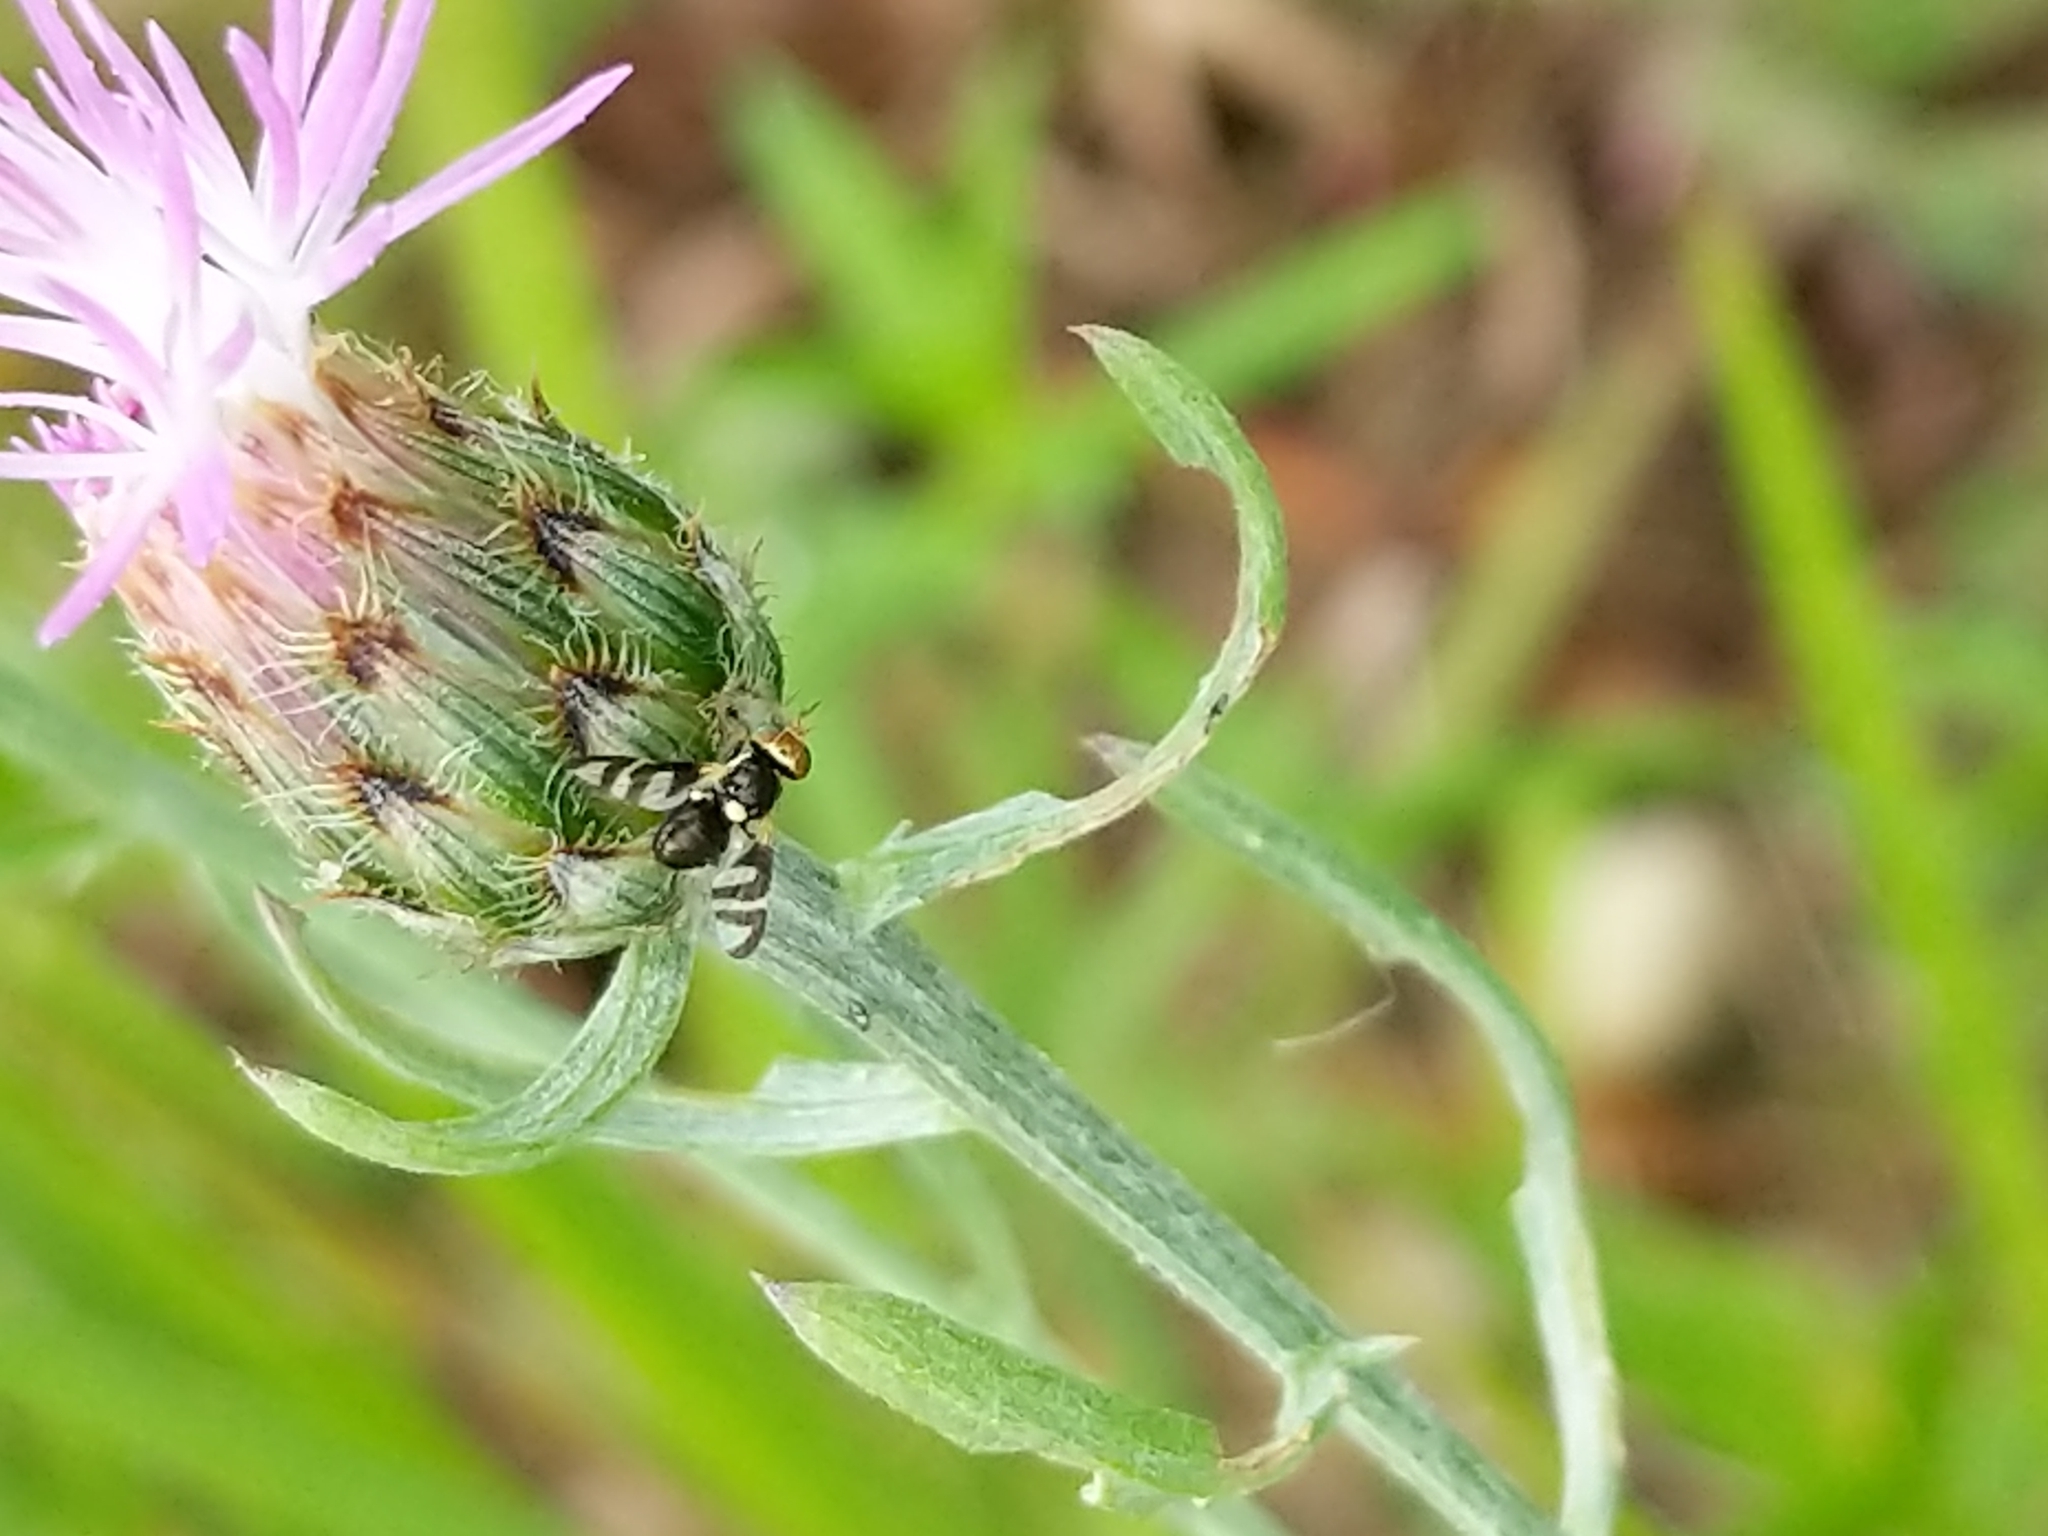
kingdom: Animalia
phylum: Arthropoda
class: Insecta
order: Diptera
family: Tephritidae
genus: Urophora
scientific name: Urophora quadrifasciata
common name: Knapweed seedhead fly
